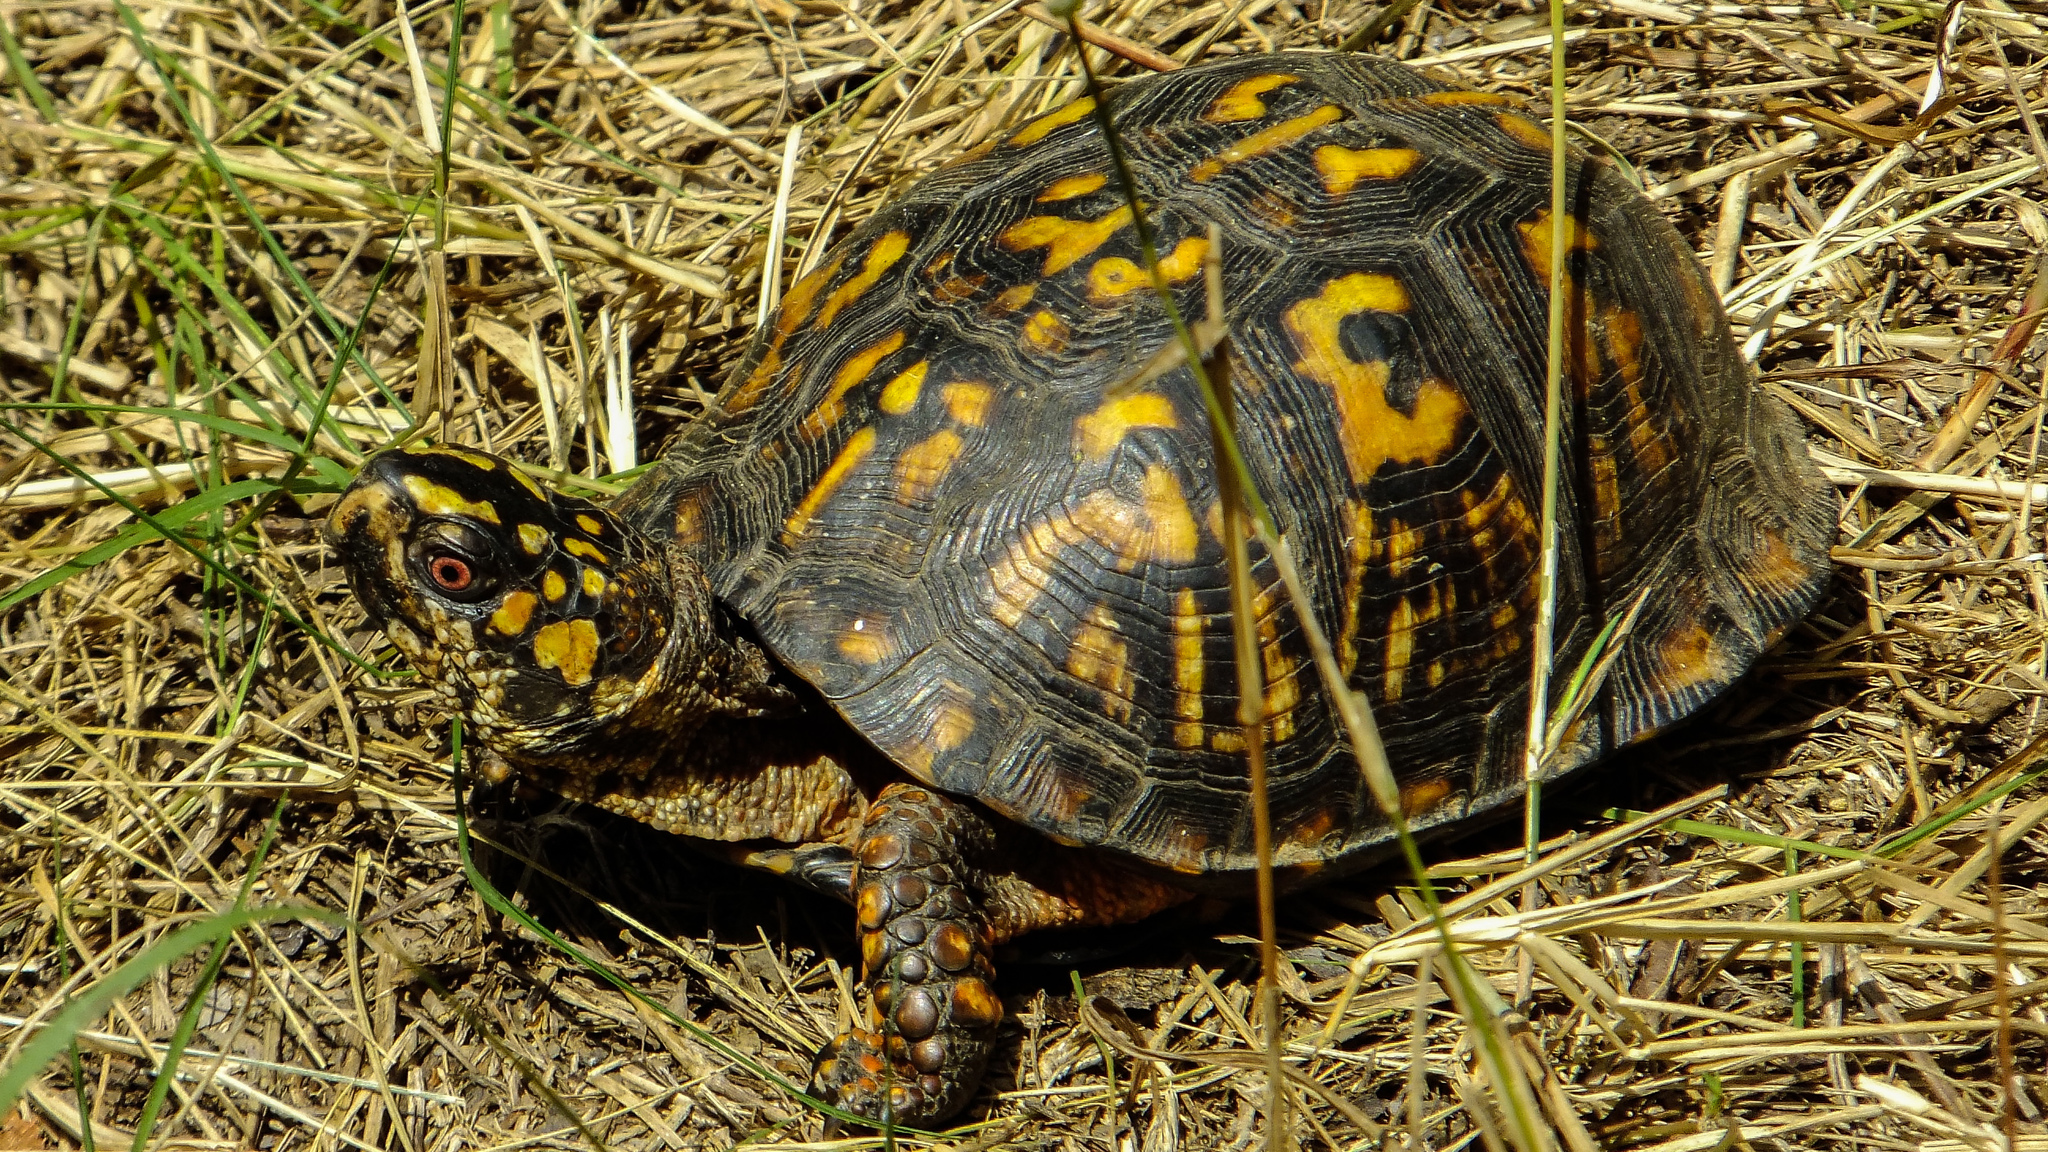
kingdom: Animalia
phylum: Chordata
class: Testudines
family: Emydidae
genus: Terrapene
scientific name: Terrapene carolina
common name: Common box turtle
